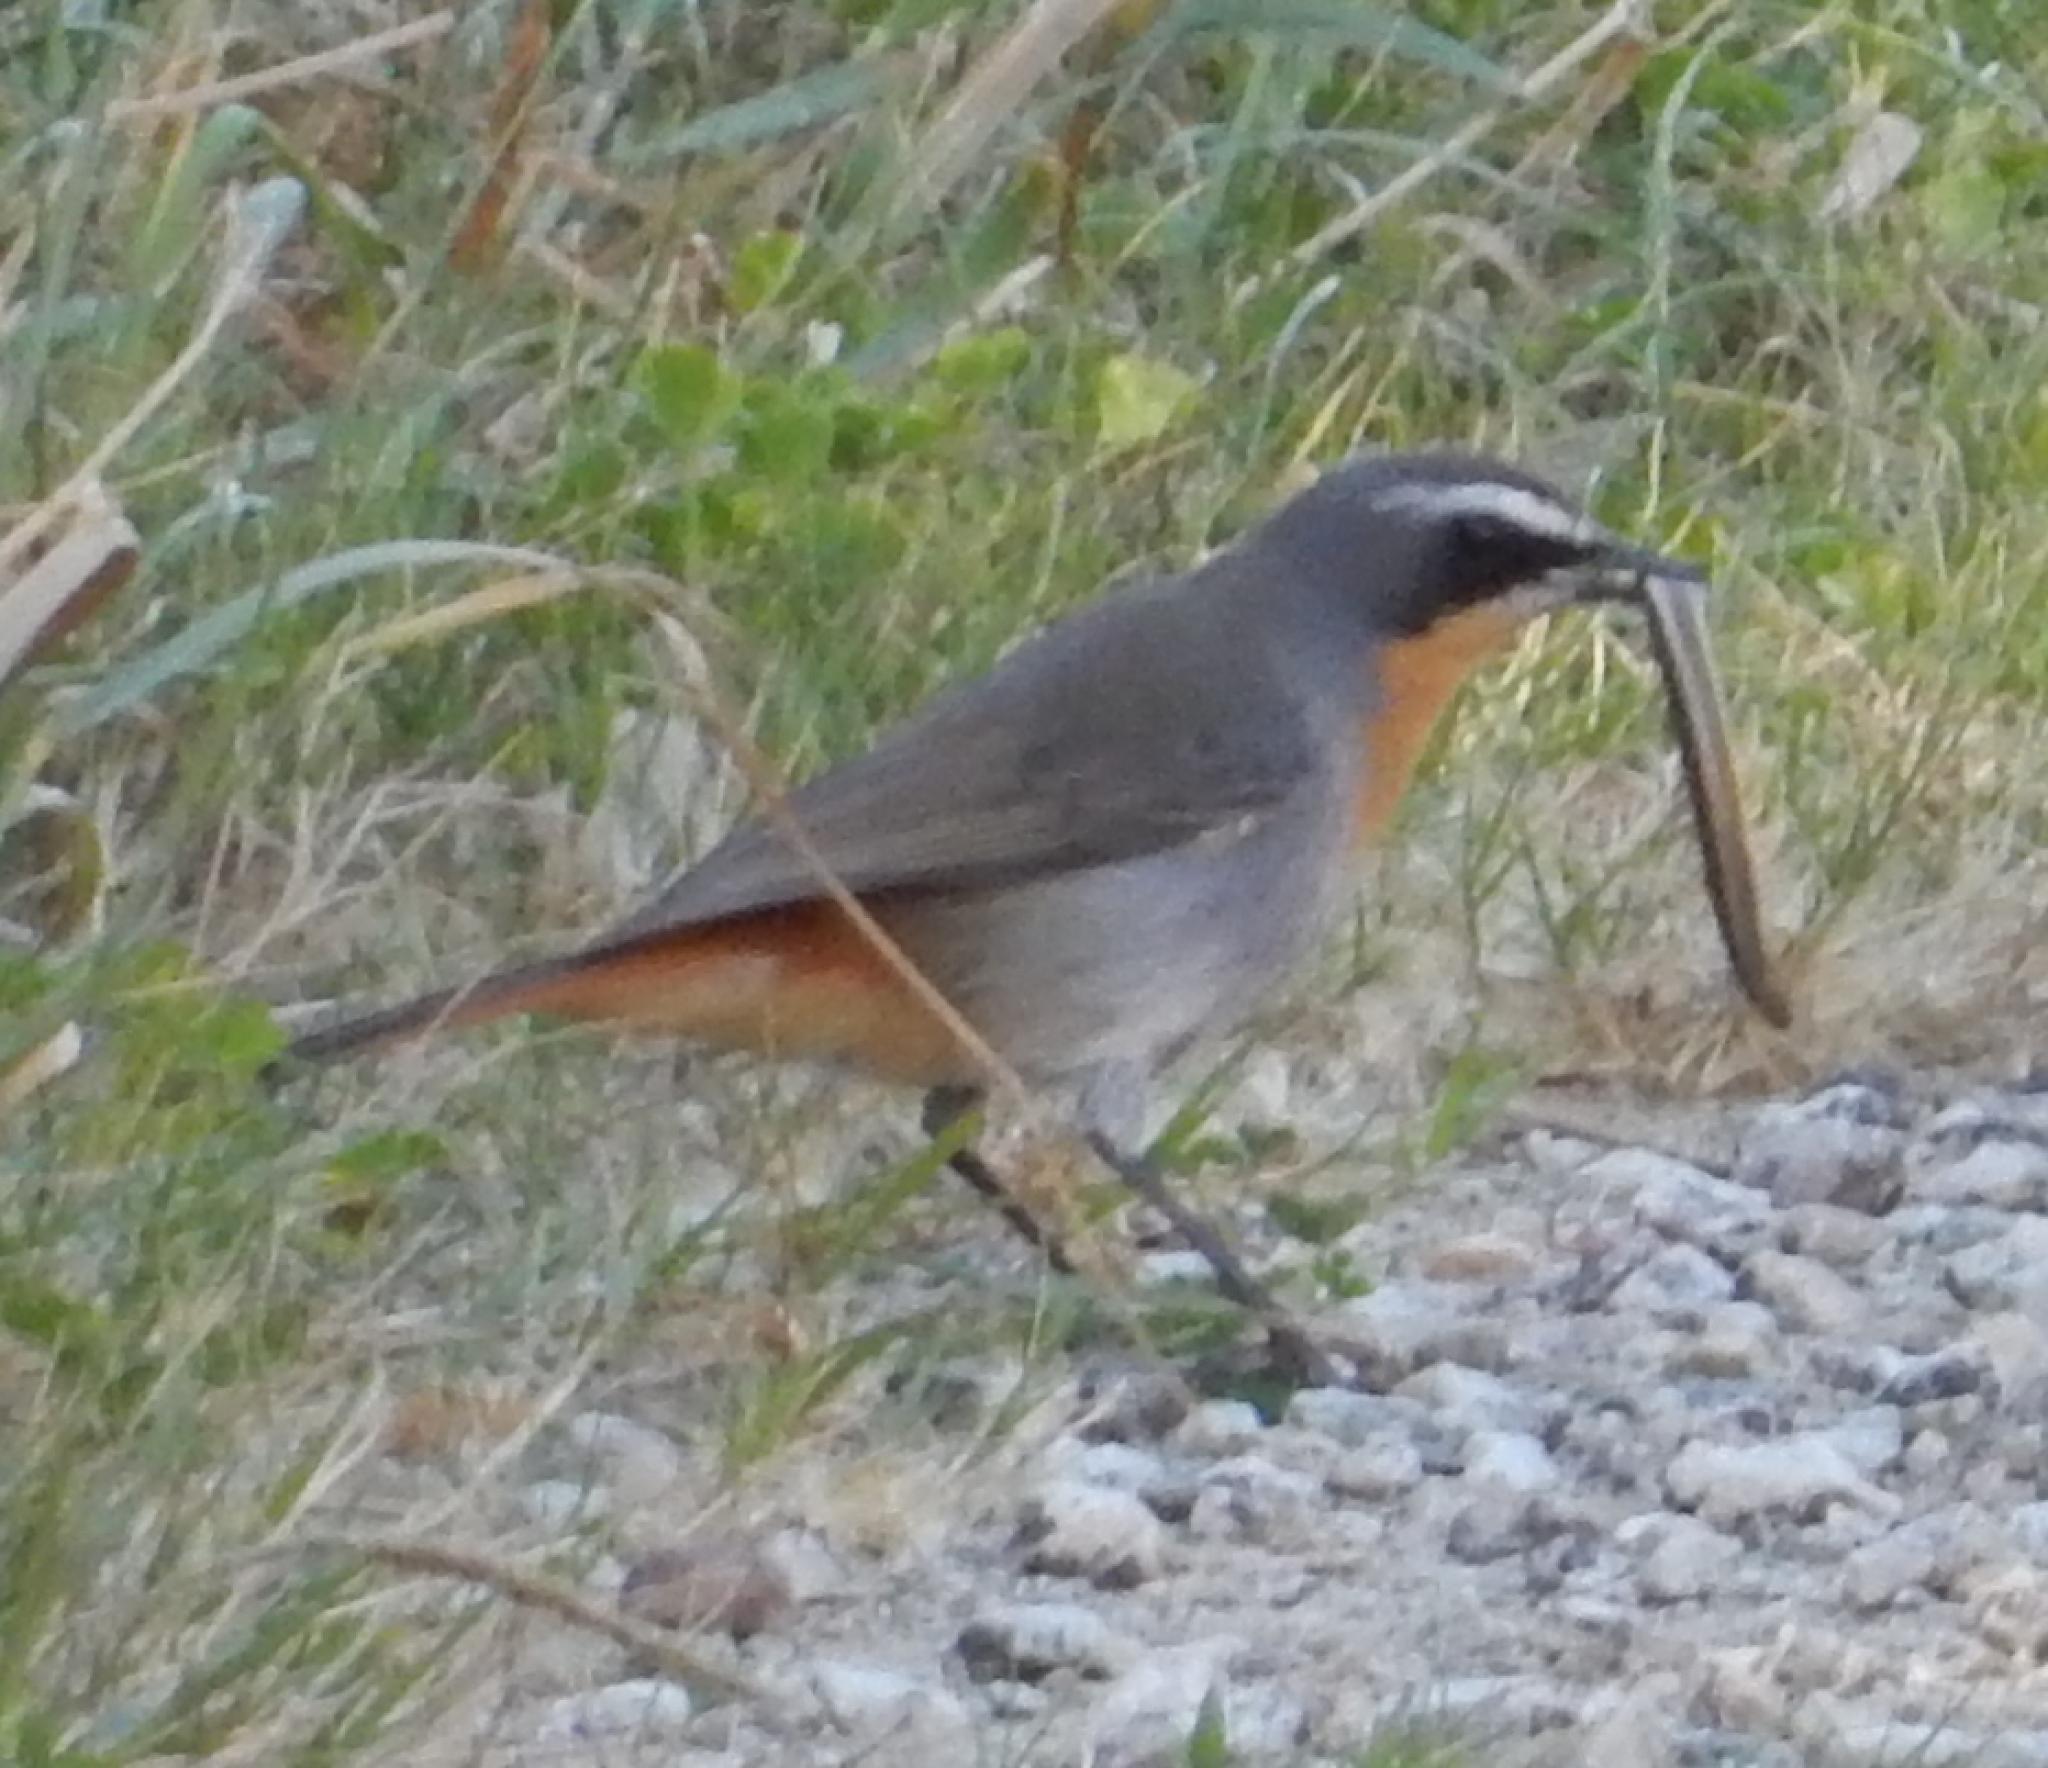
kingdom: Animalia
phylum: Chordata
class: Aves
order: Passeriformes
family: Muscicapidae
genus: Cossypha
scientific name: Cossypha caffra
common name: Cape robin-chat
